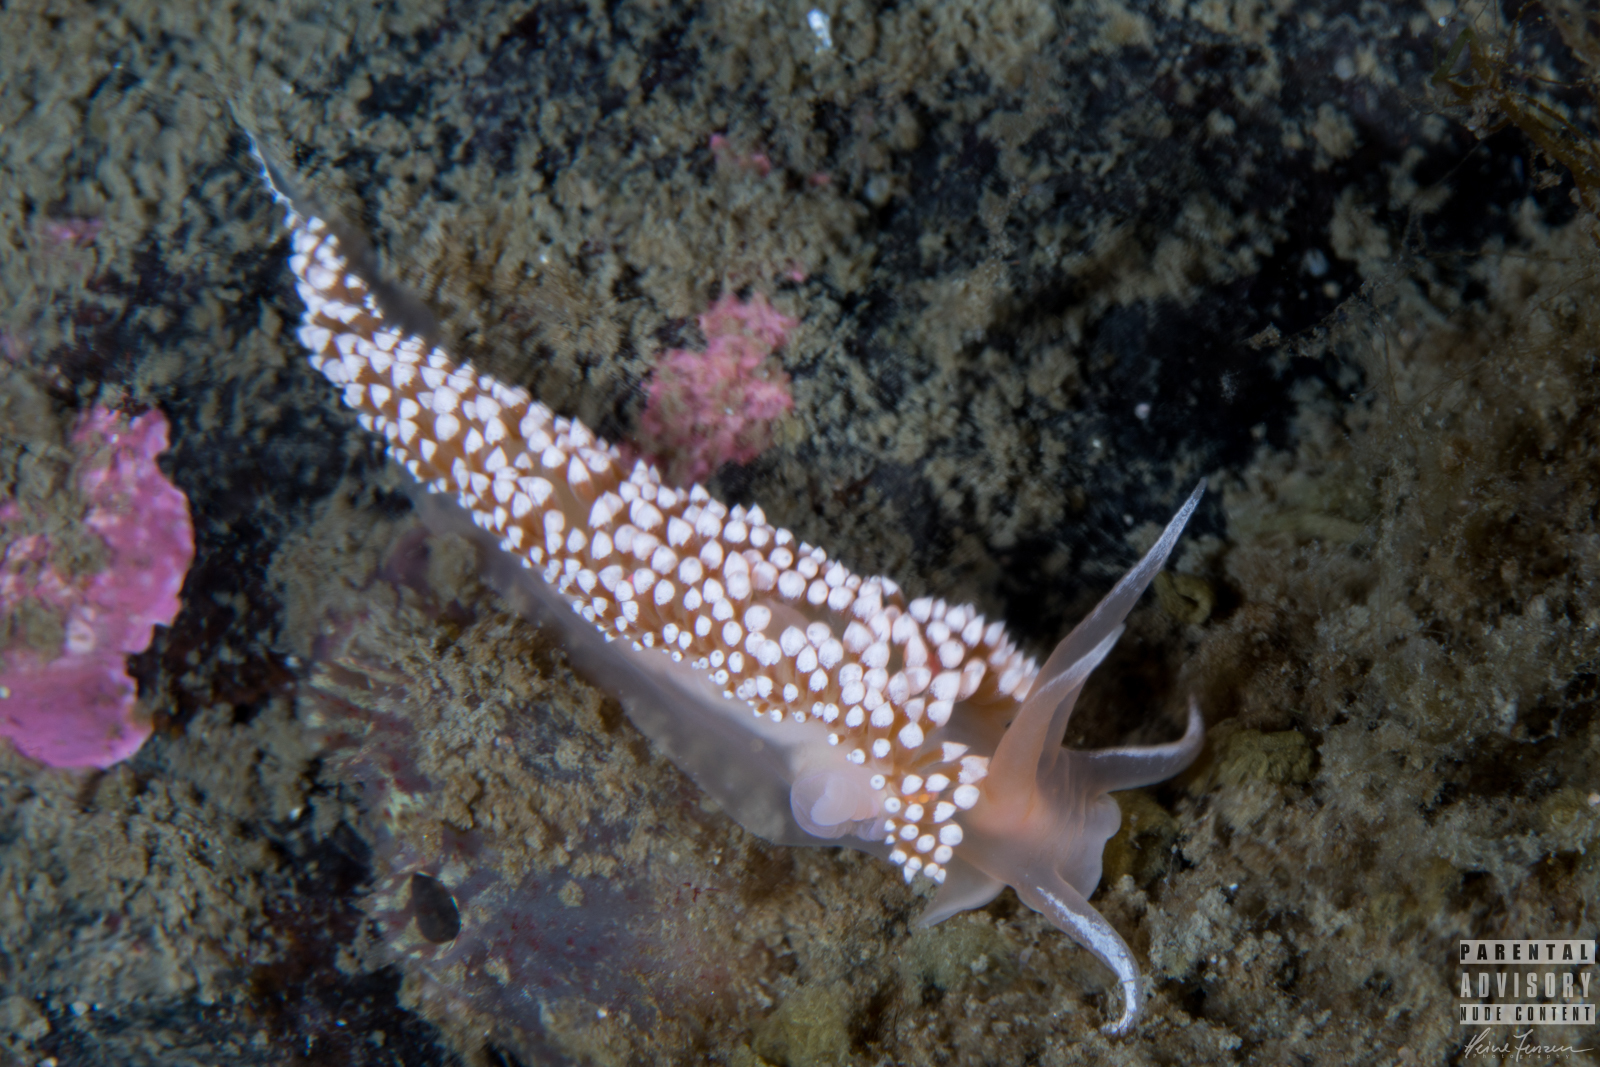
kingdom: Animalia
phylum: Mollusca
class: Gastropoda
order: Nudibranchia
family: Coryphellidae
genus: Coryphella
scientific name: Coryphella verrucosa
